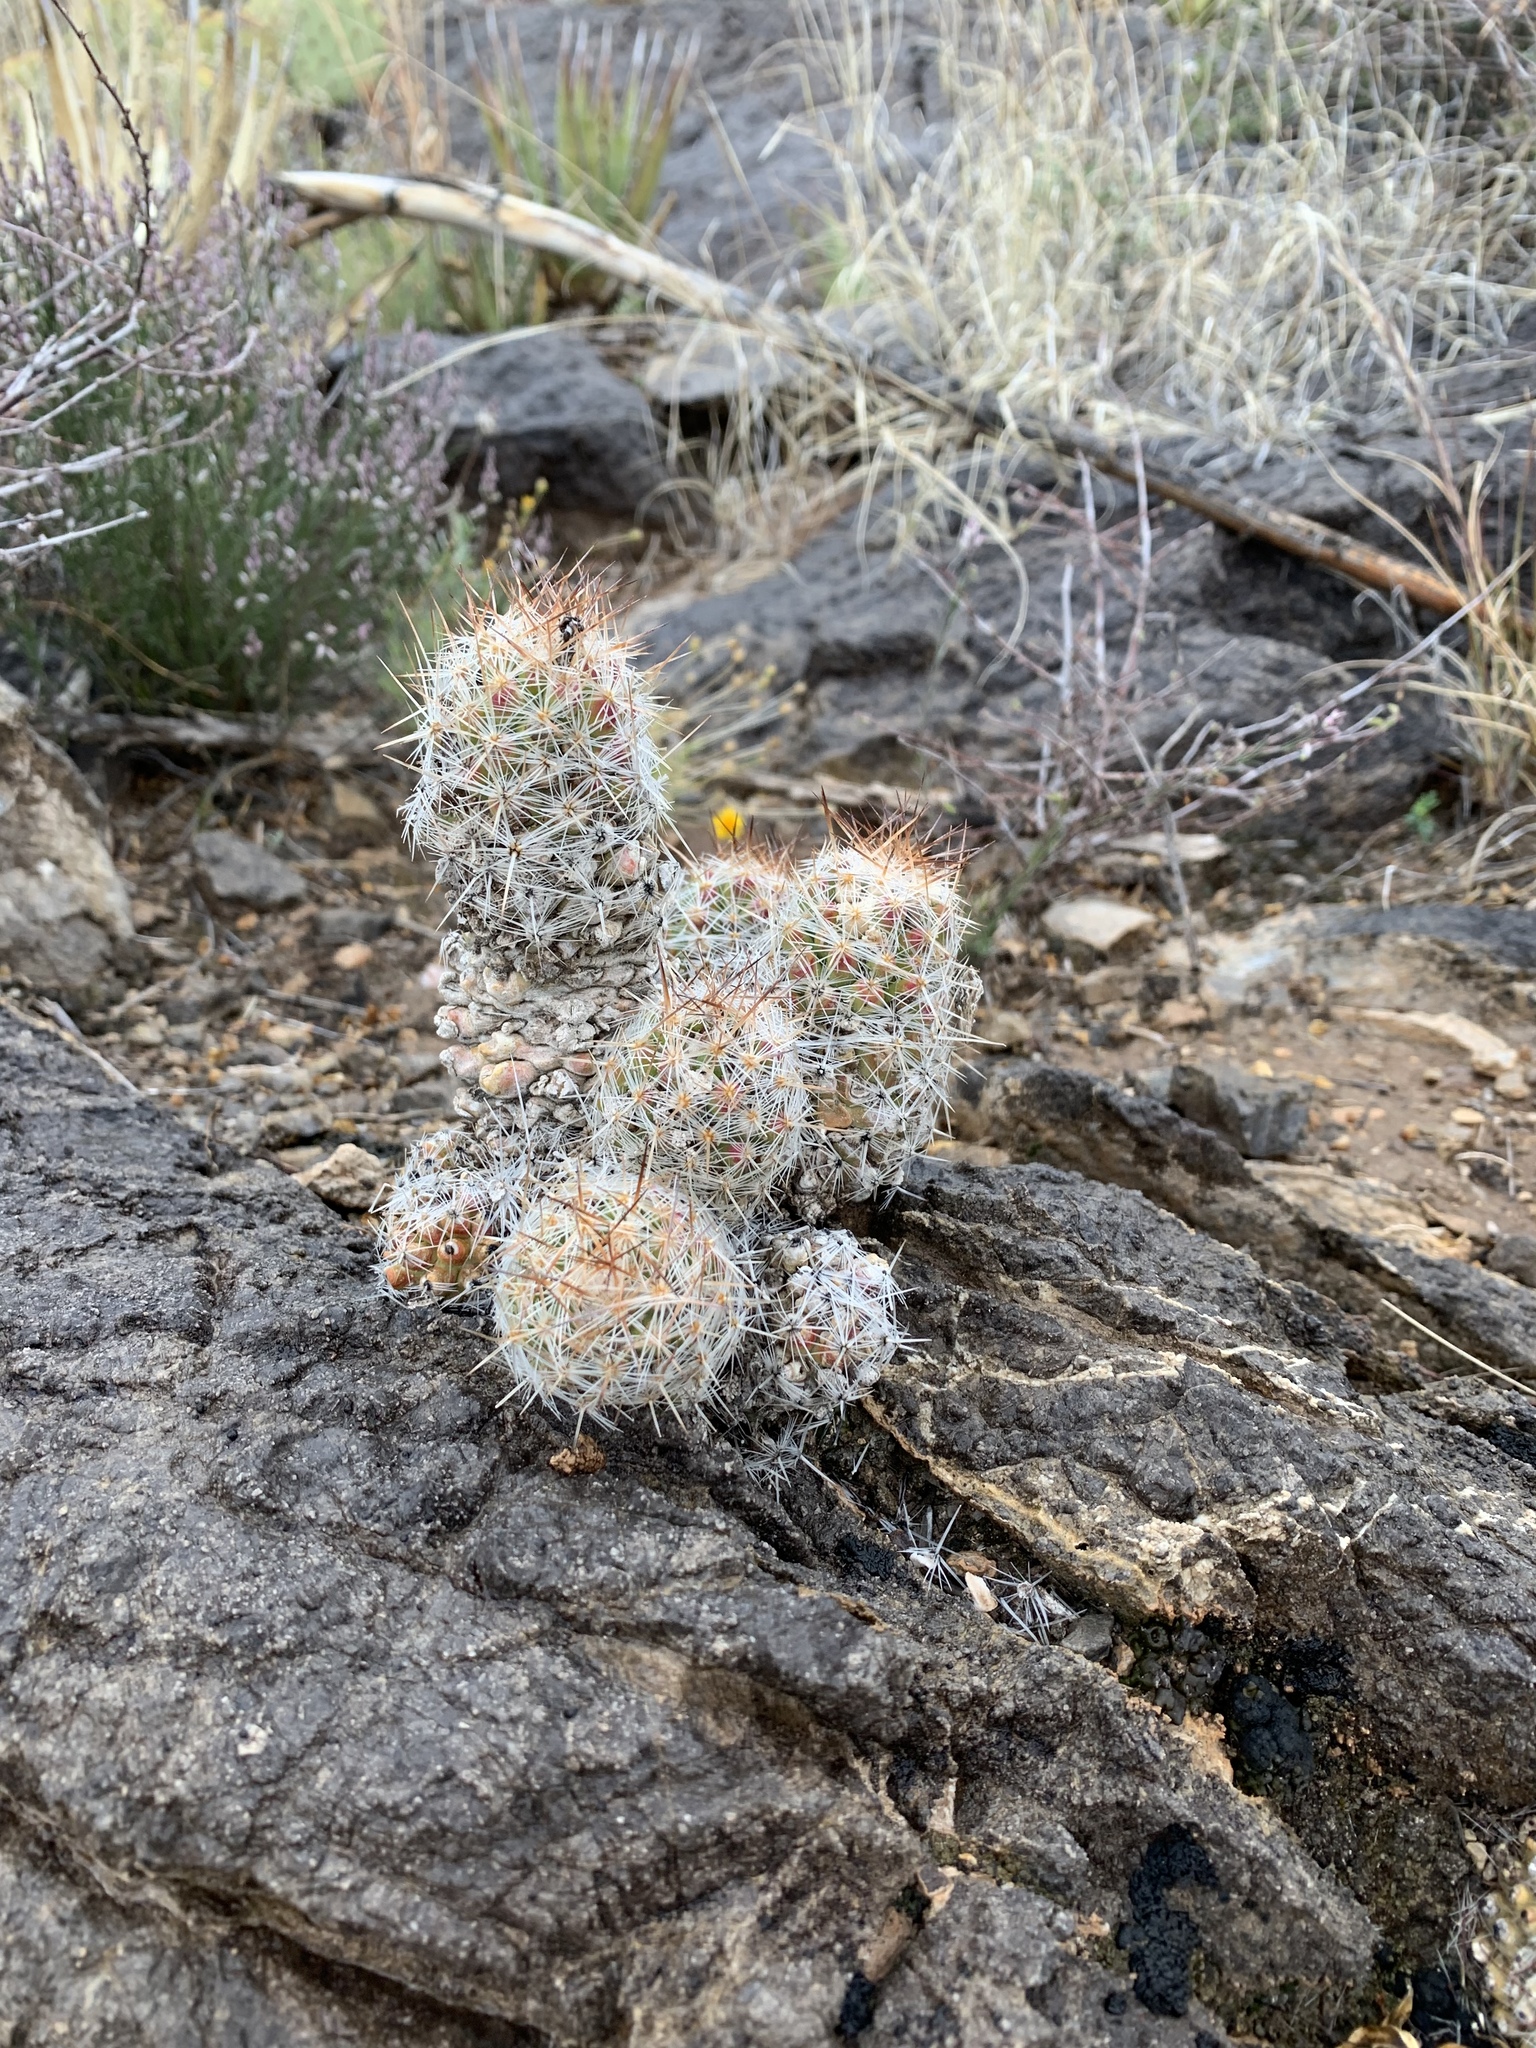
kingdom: Plantae
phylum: Tracheophyta
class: Magnoliopsida
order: Caryophyllales
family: Cactaceae
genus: Pelecyphora
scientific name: Pelecyphora tuberculosa
